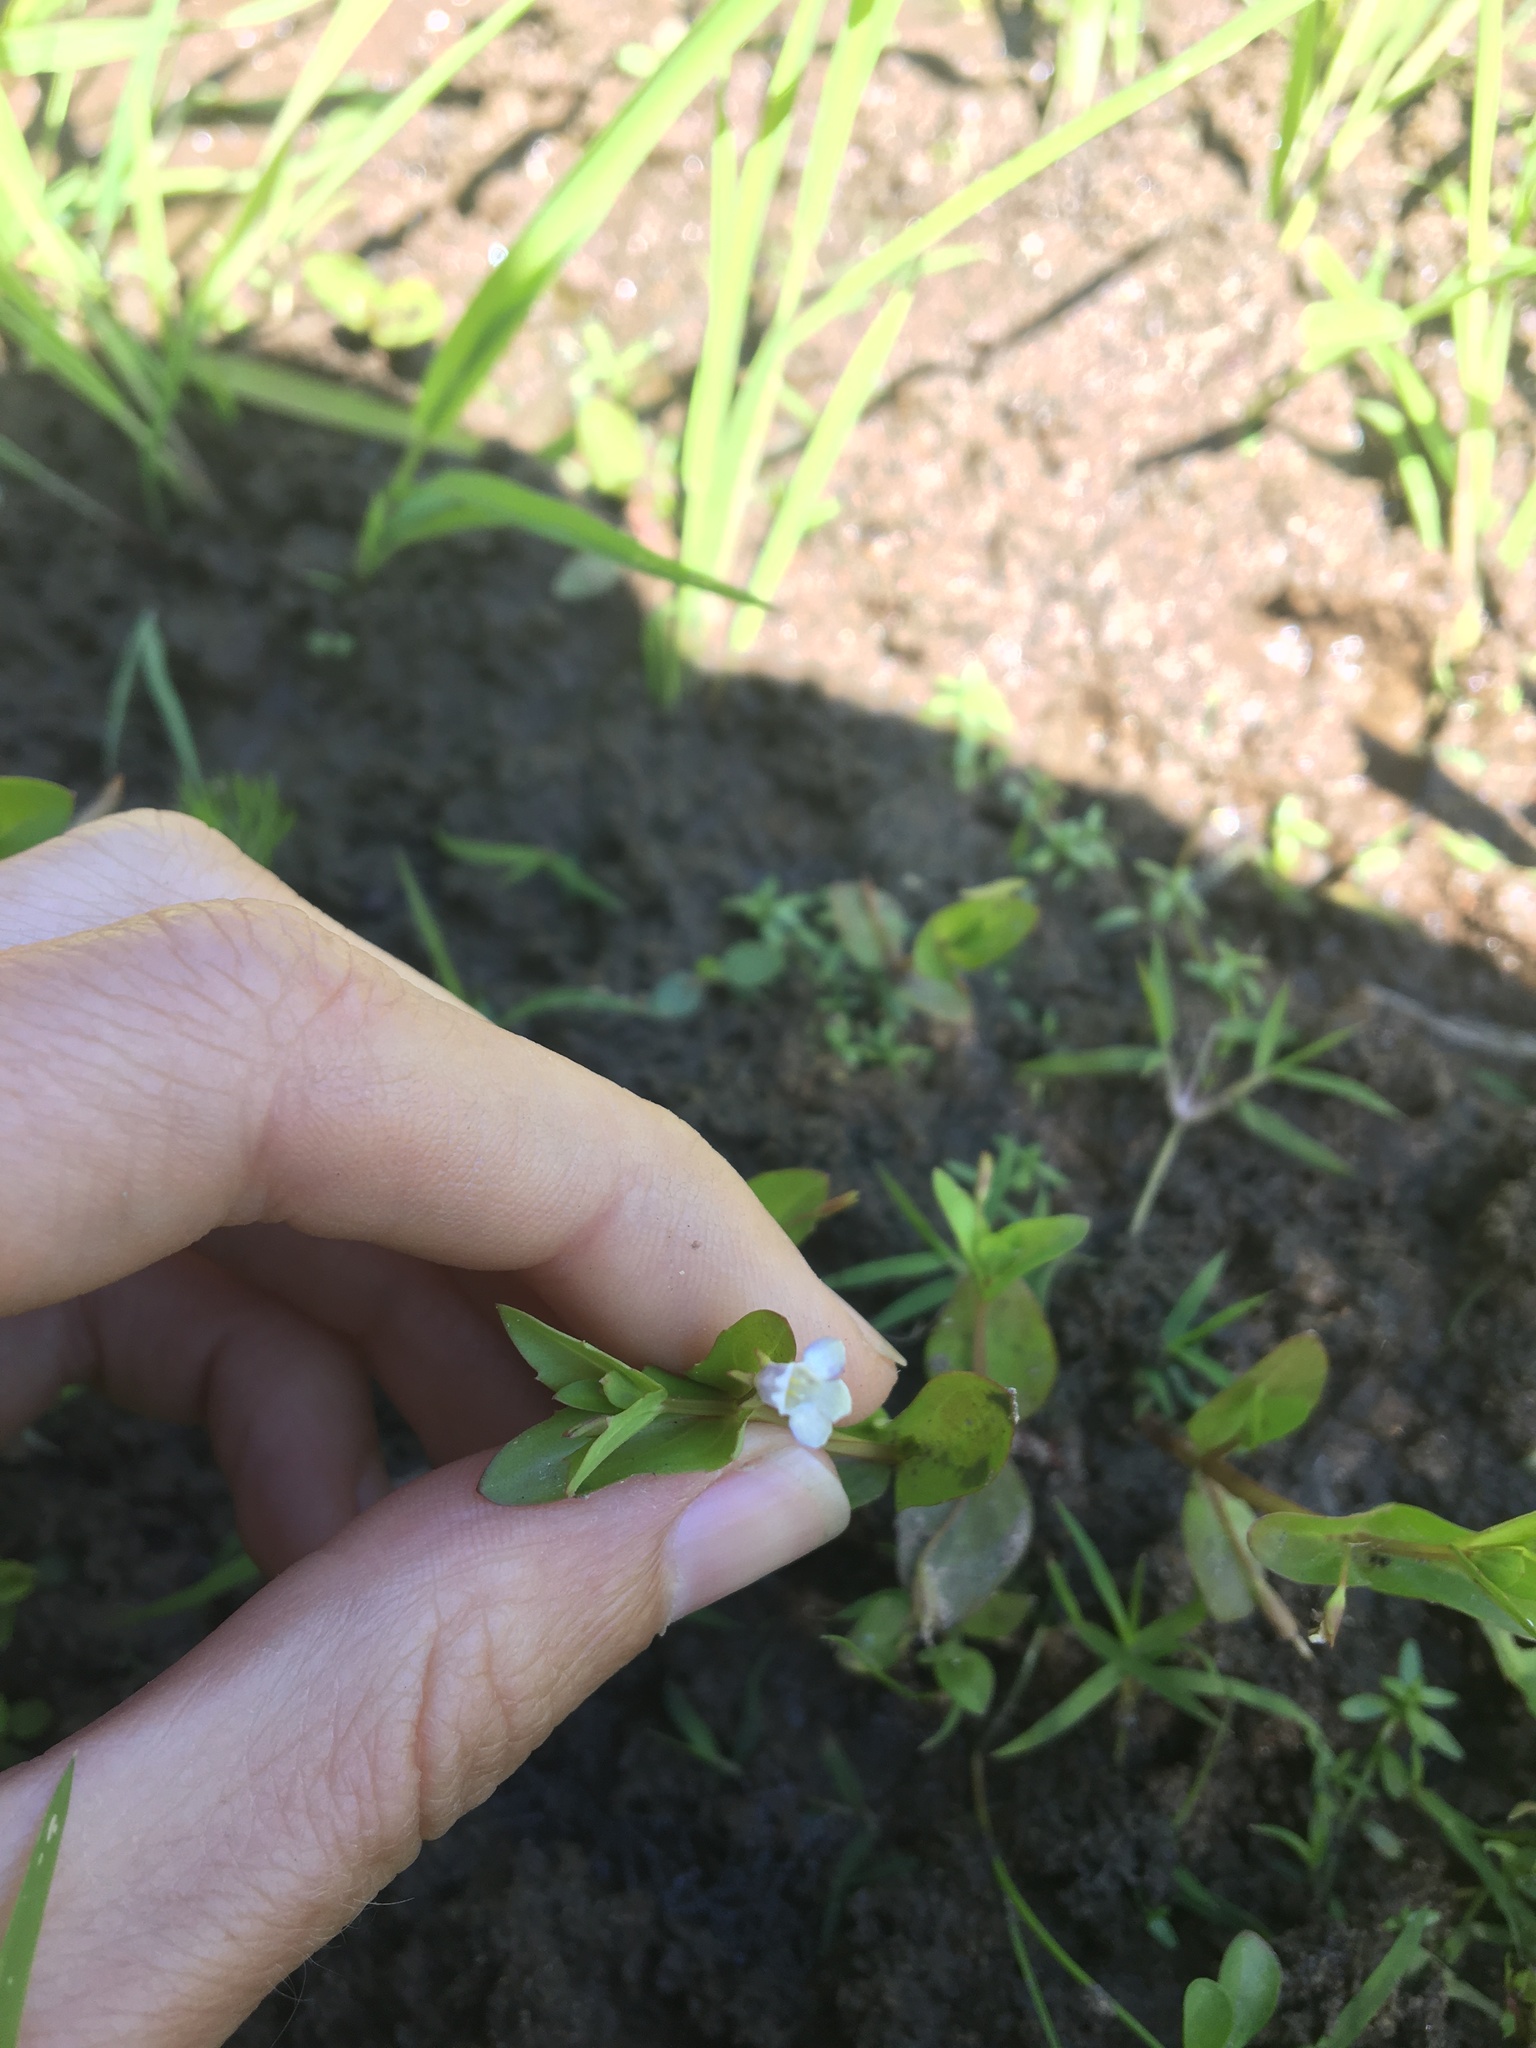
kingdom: Plantae
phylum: Tracheophyta
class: Magnoliopsida
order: Lamiales
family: Linderniaceae
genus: Lindernia
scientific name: Lindernia dubia
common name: Annual false pimpernel
